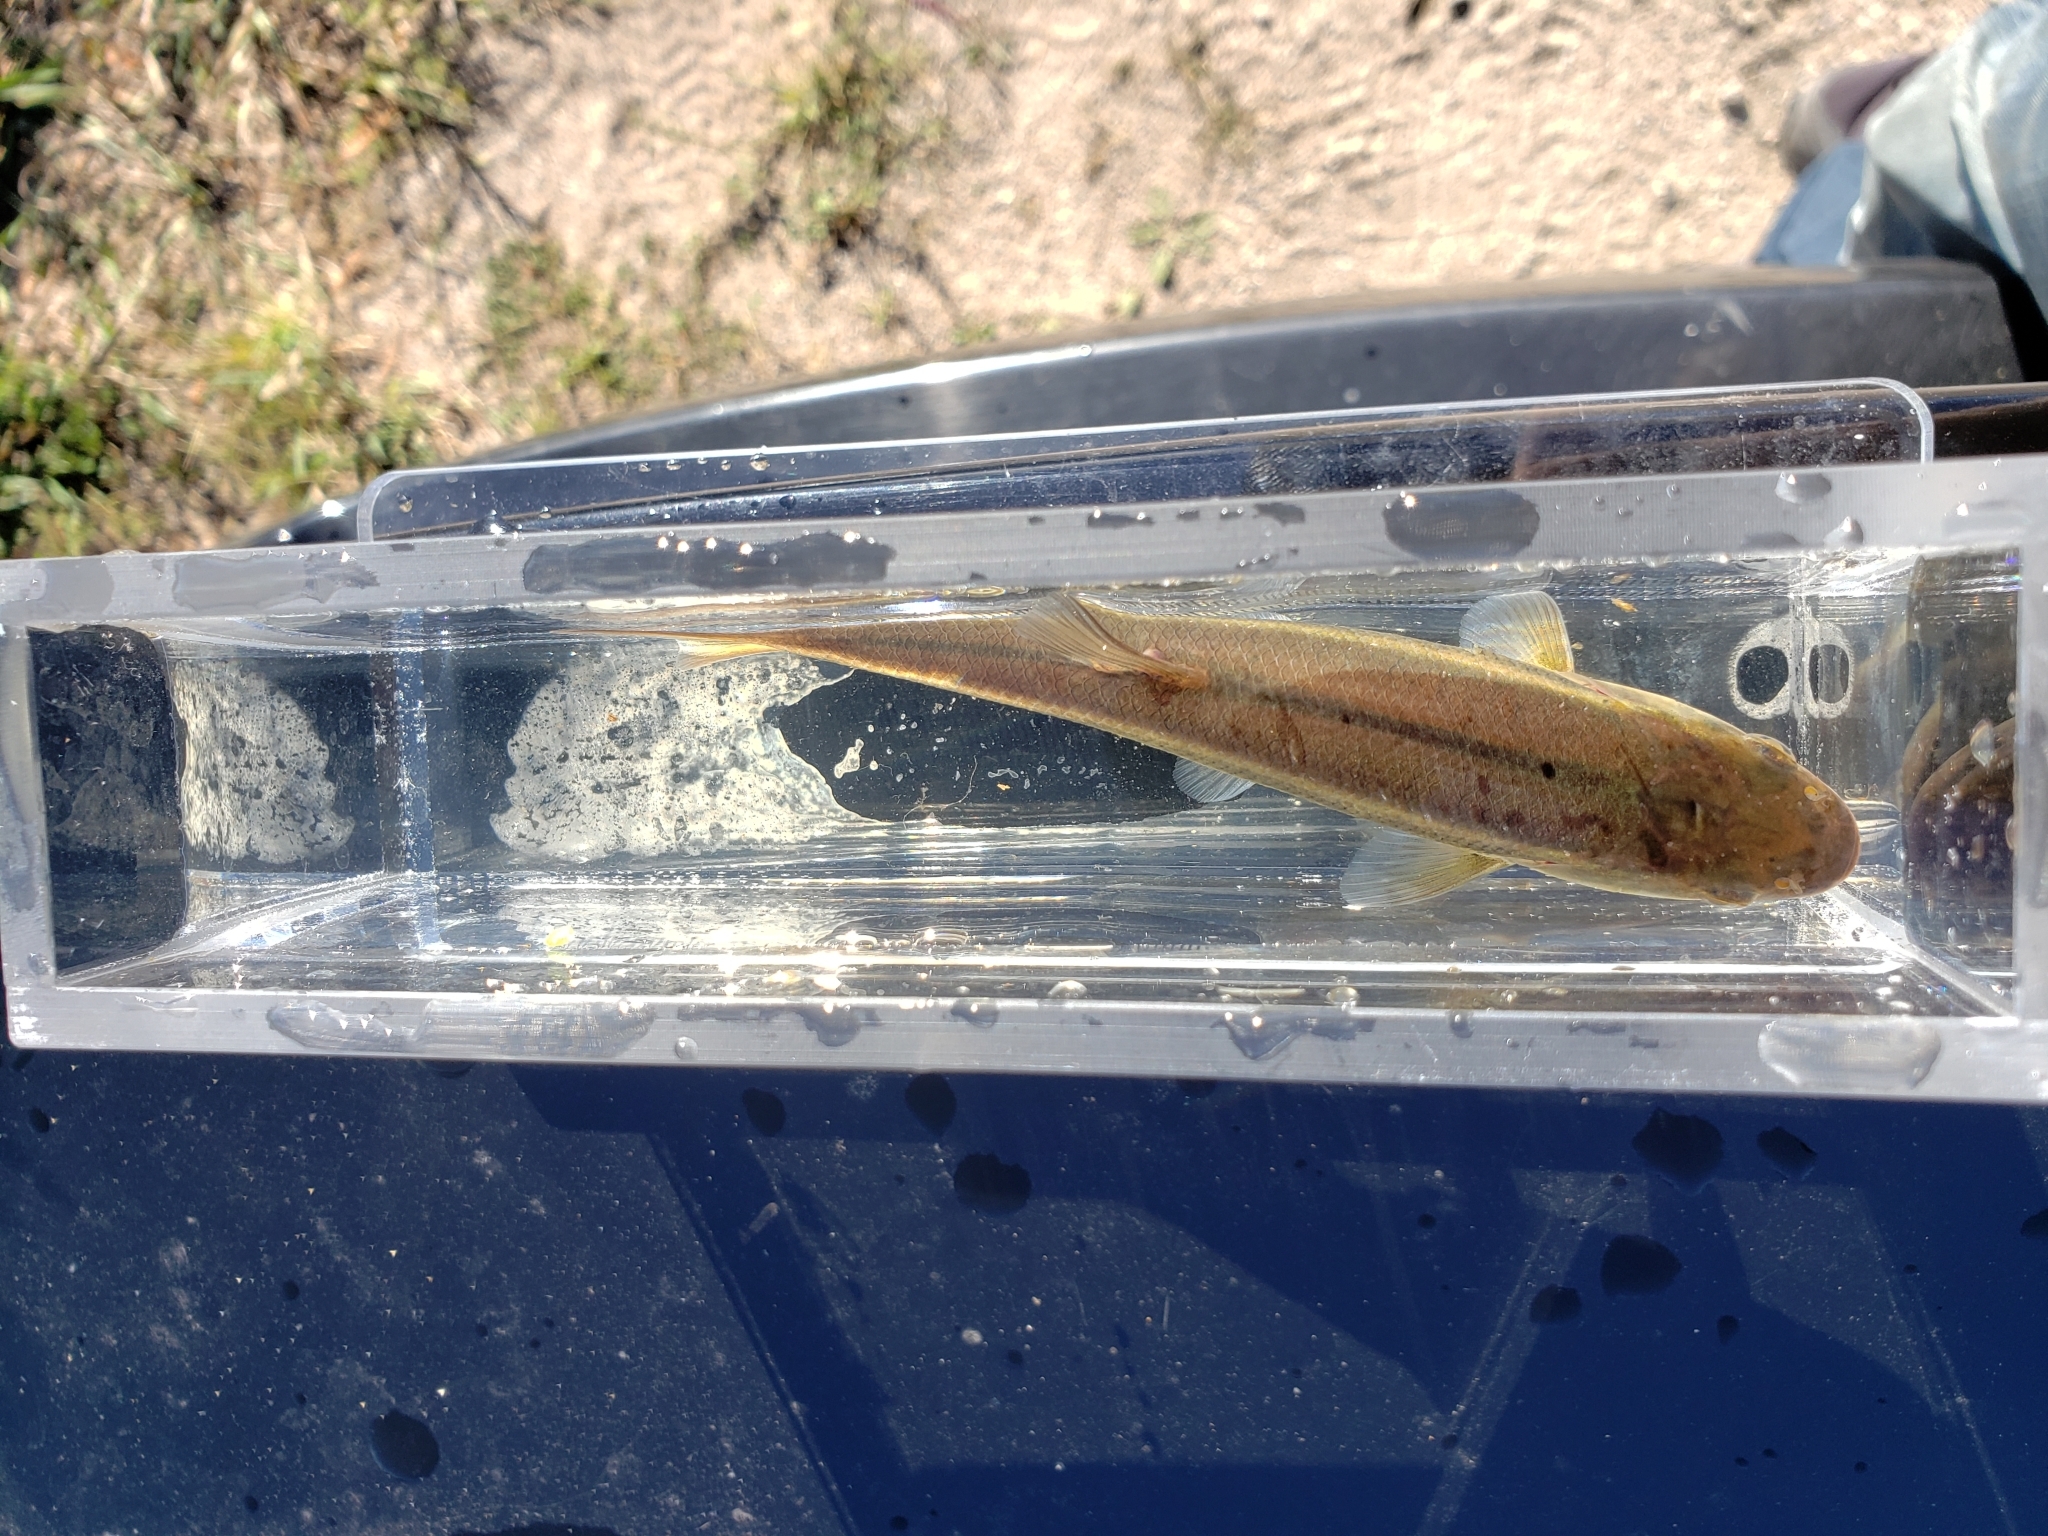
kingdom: Animalia
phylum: Chordata
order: Cypriniformes
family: Cyprinidae
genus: Semotilus
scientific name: Semotilus atromaculatus
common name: Creek chub
